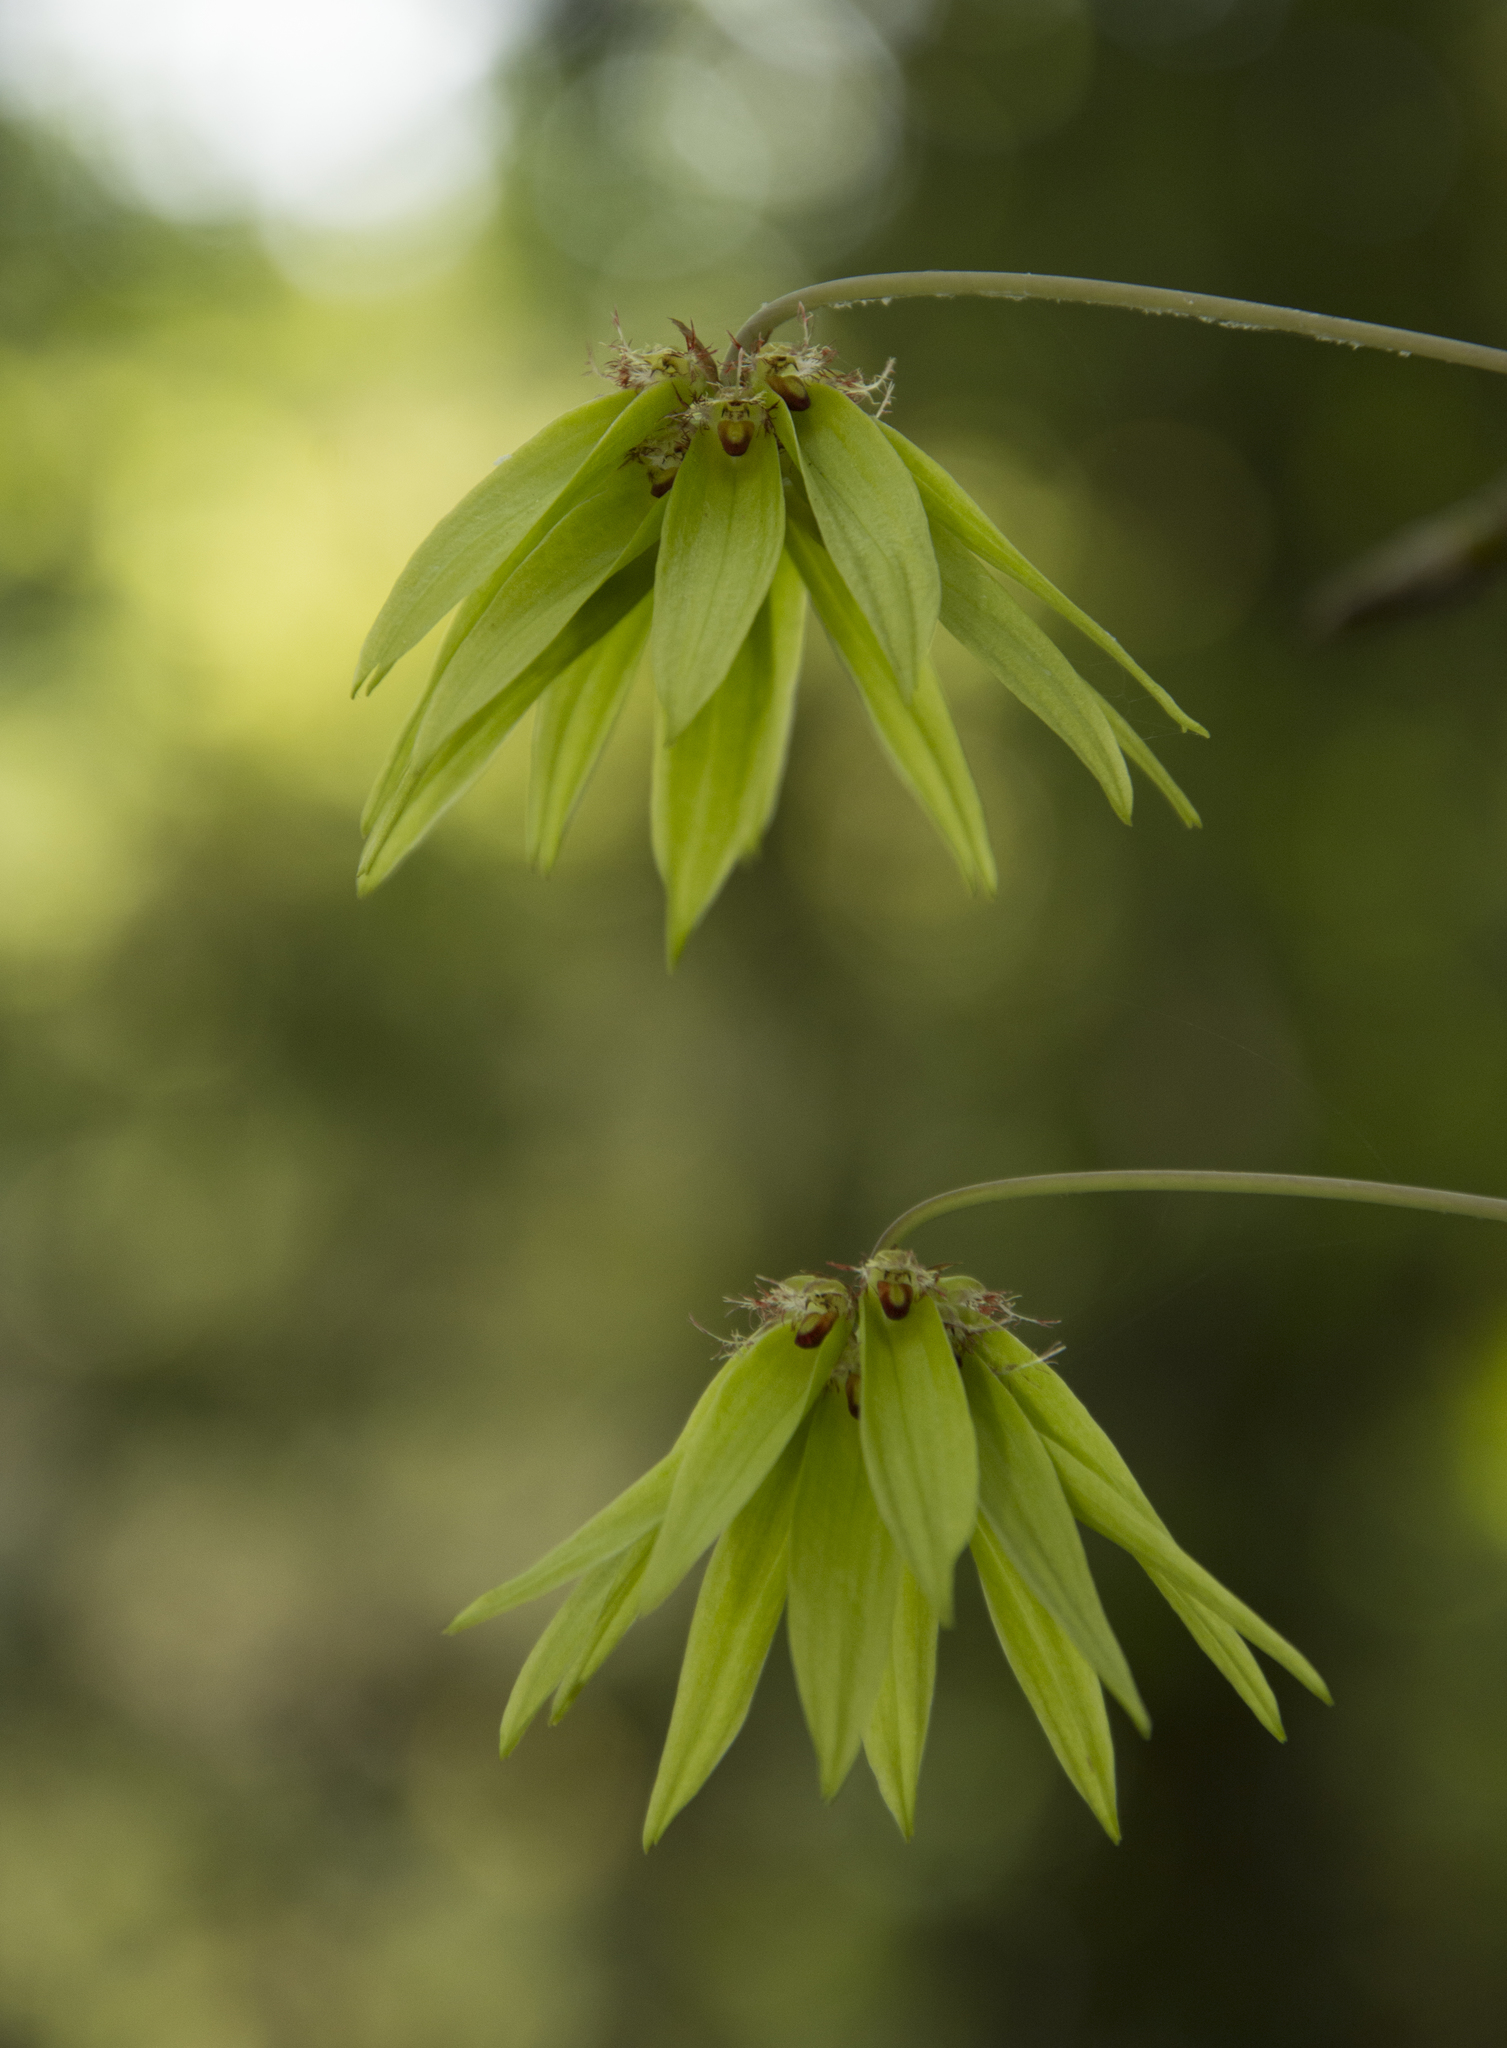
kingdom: Plantae
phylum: Tracheophyta
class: Liliopsida
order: Asparagales
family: Orchidaceae
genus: Bulbophyllum
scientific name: Bulbophyllum fimbriatum
